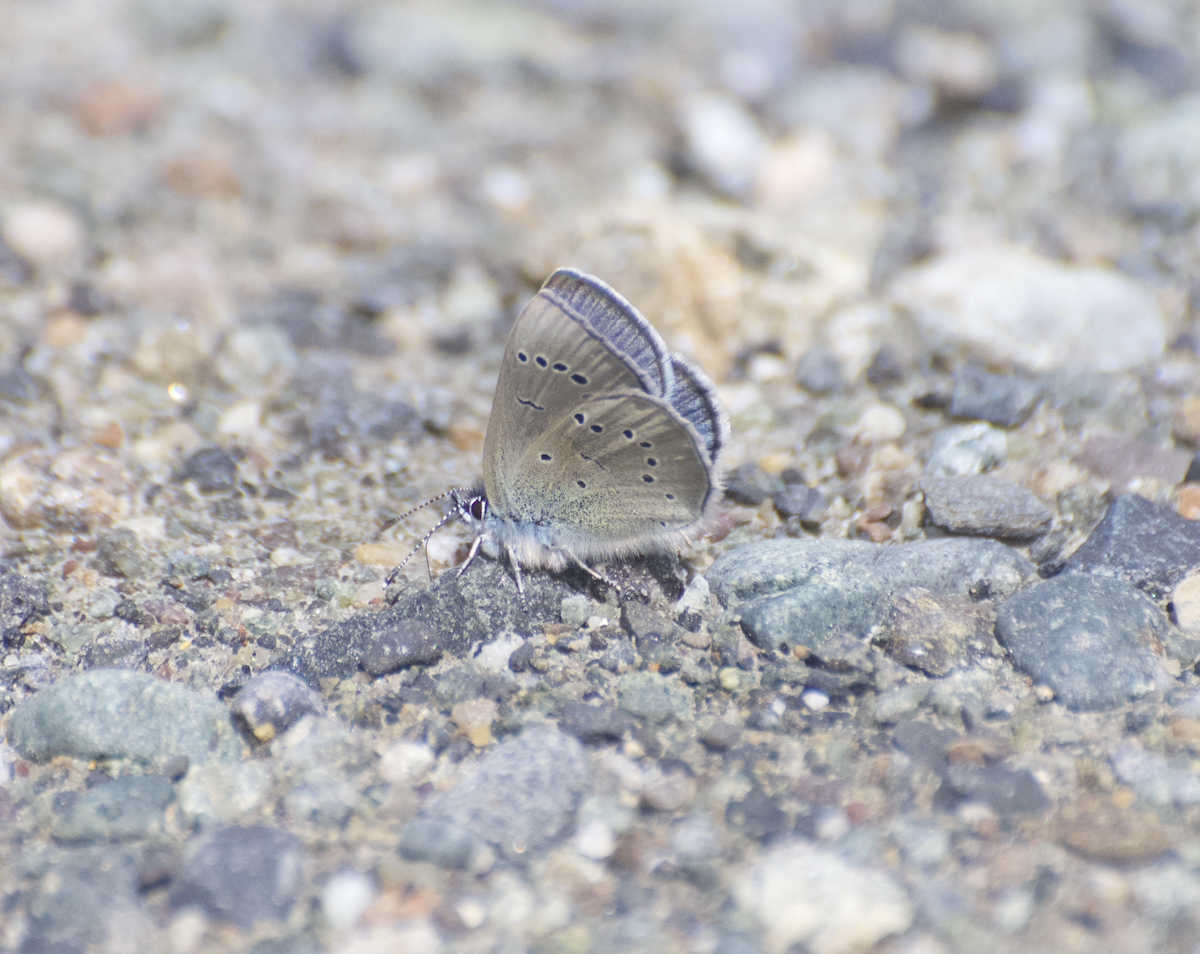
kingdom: Animalia
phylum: Arthropoda
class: Insecta
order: Lepidoptera
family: Lycaenidae
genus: Glaucopsyche
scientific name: Glaucopsyche lygdamus
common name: Silvery blue
